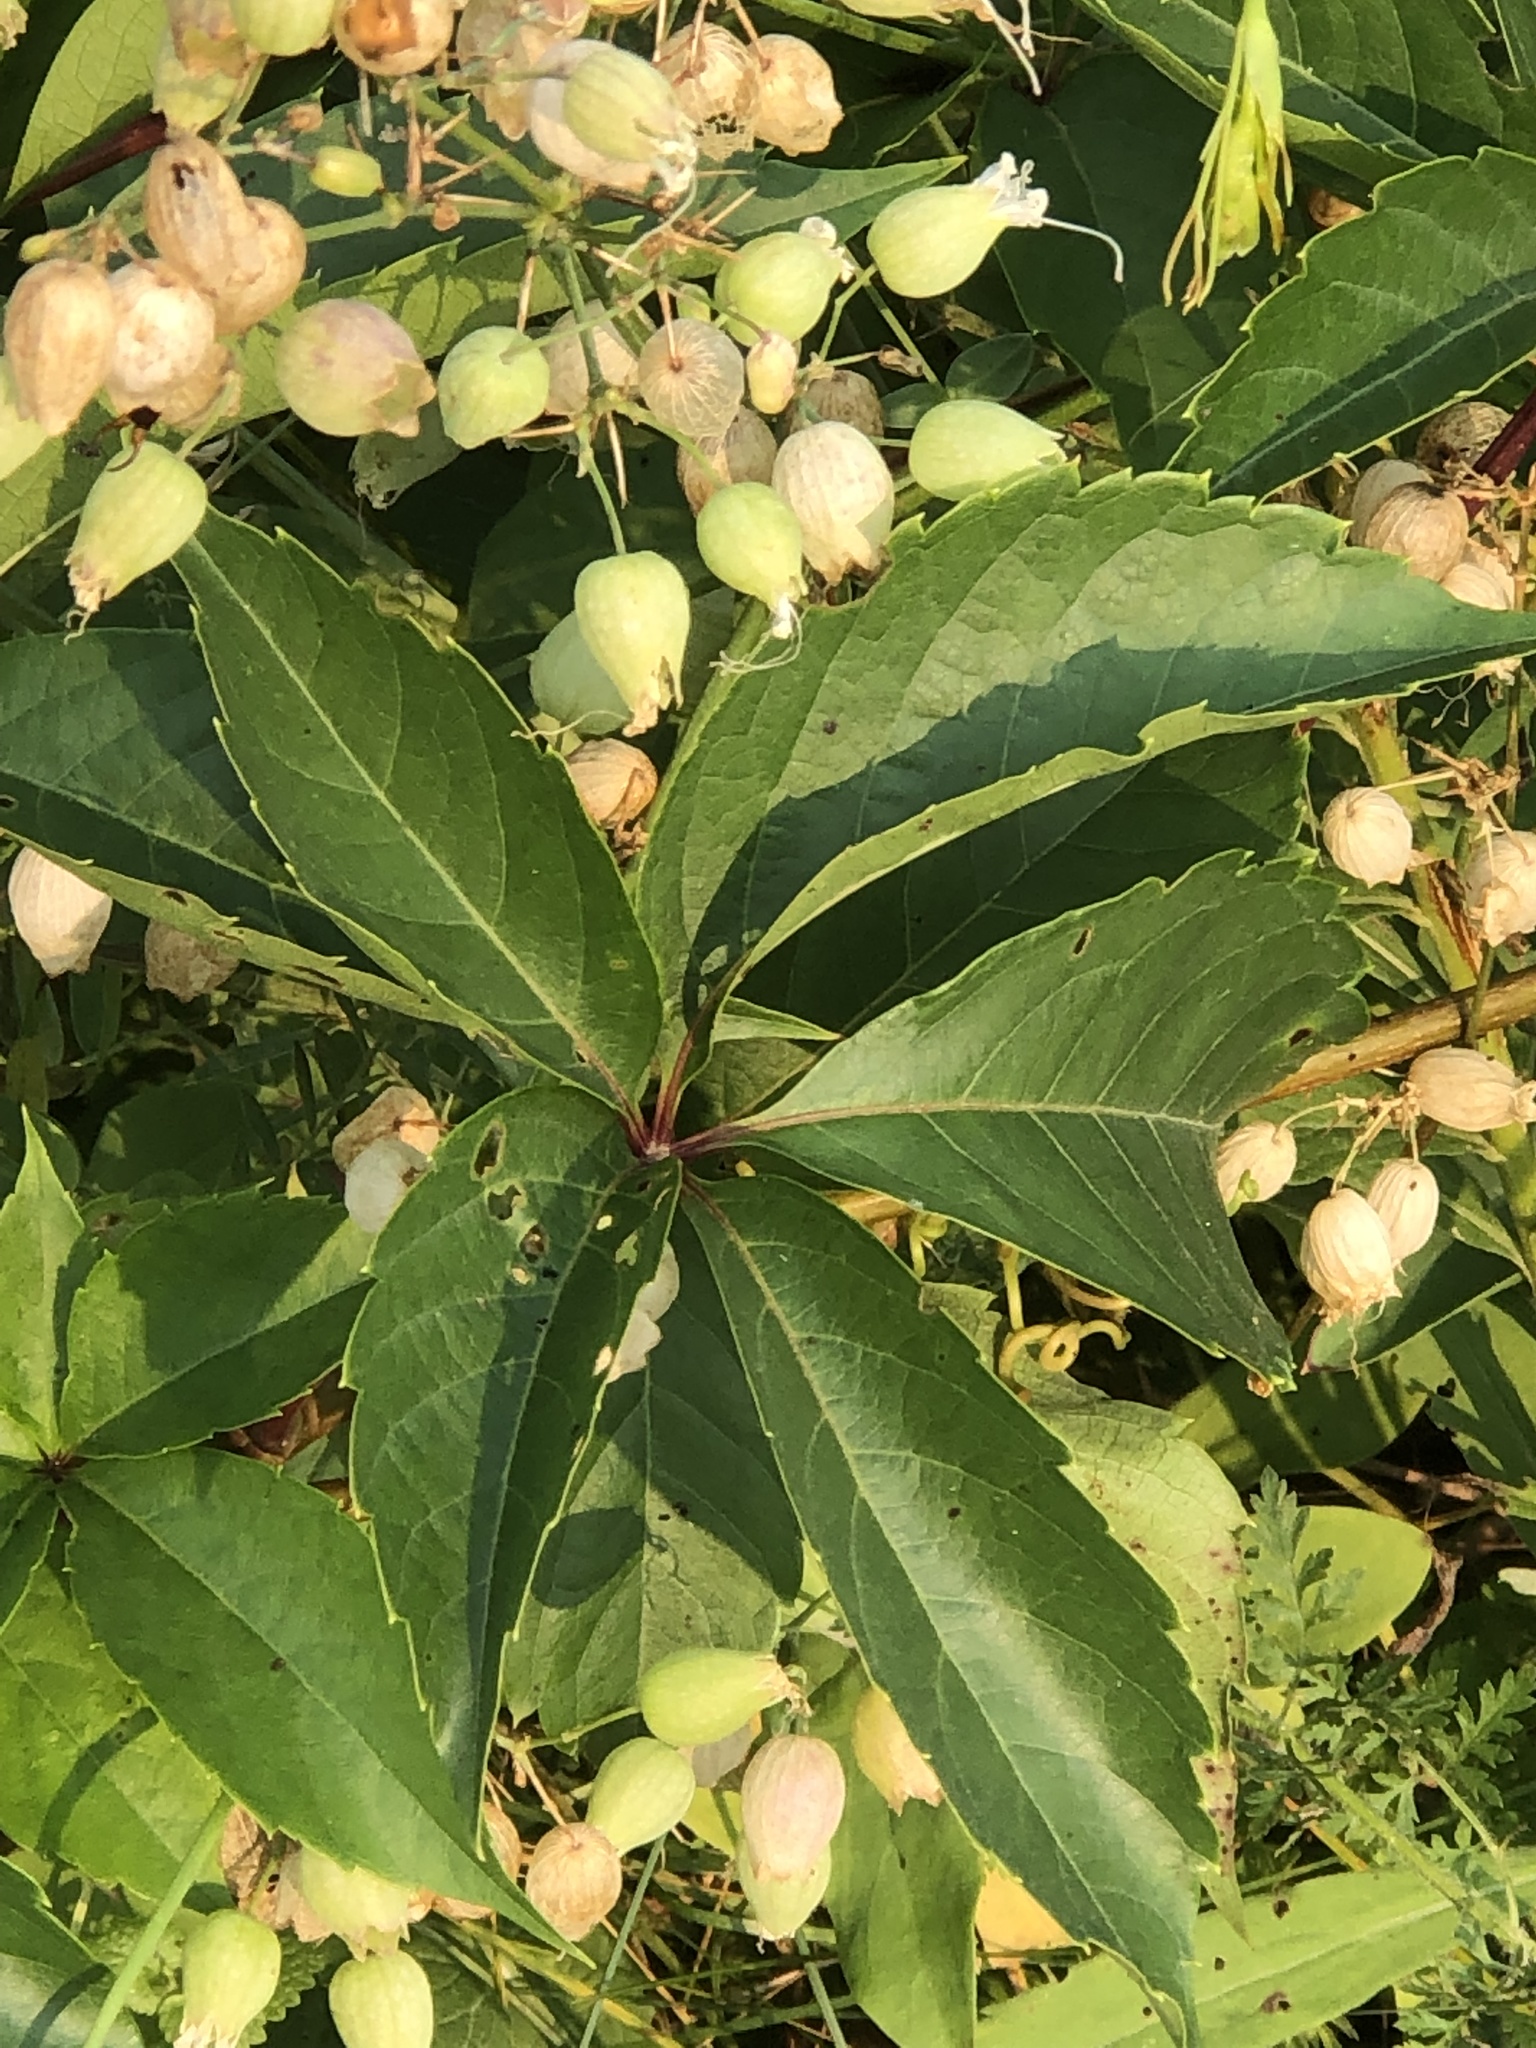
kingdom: Plantae
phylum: Tracheophyta
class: Magnoliopsida
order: Vitales
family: Vitaceae
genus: Parthenocissus
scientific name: Parthenocissus quinquefolia
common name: Virginia-creeper
